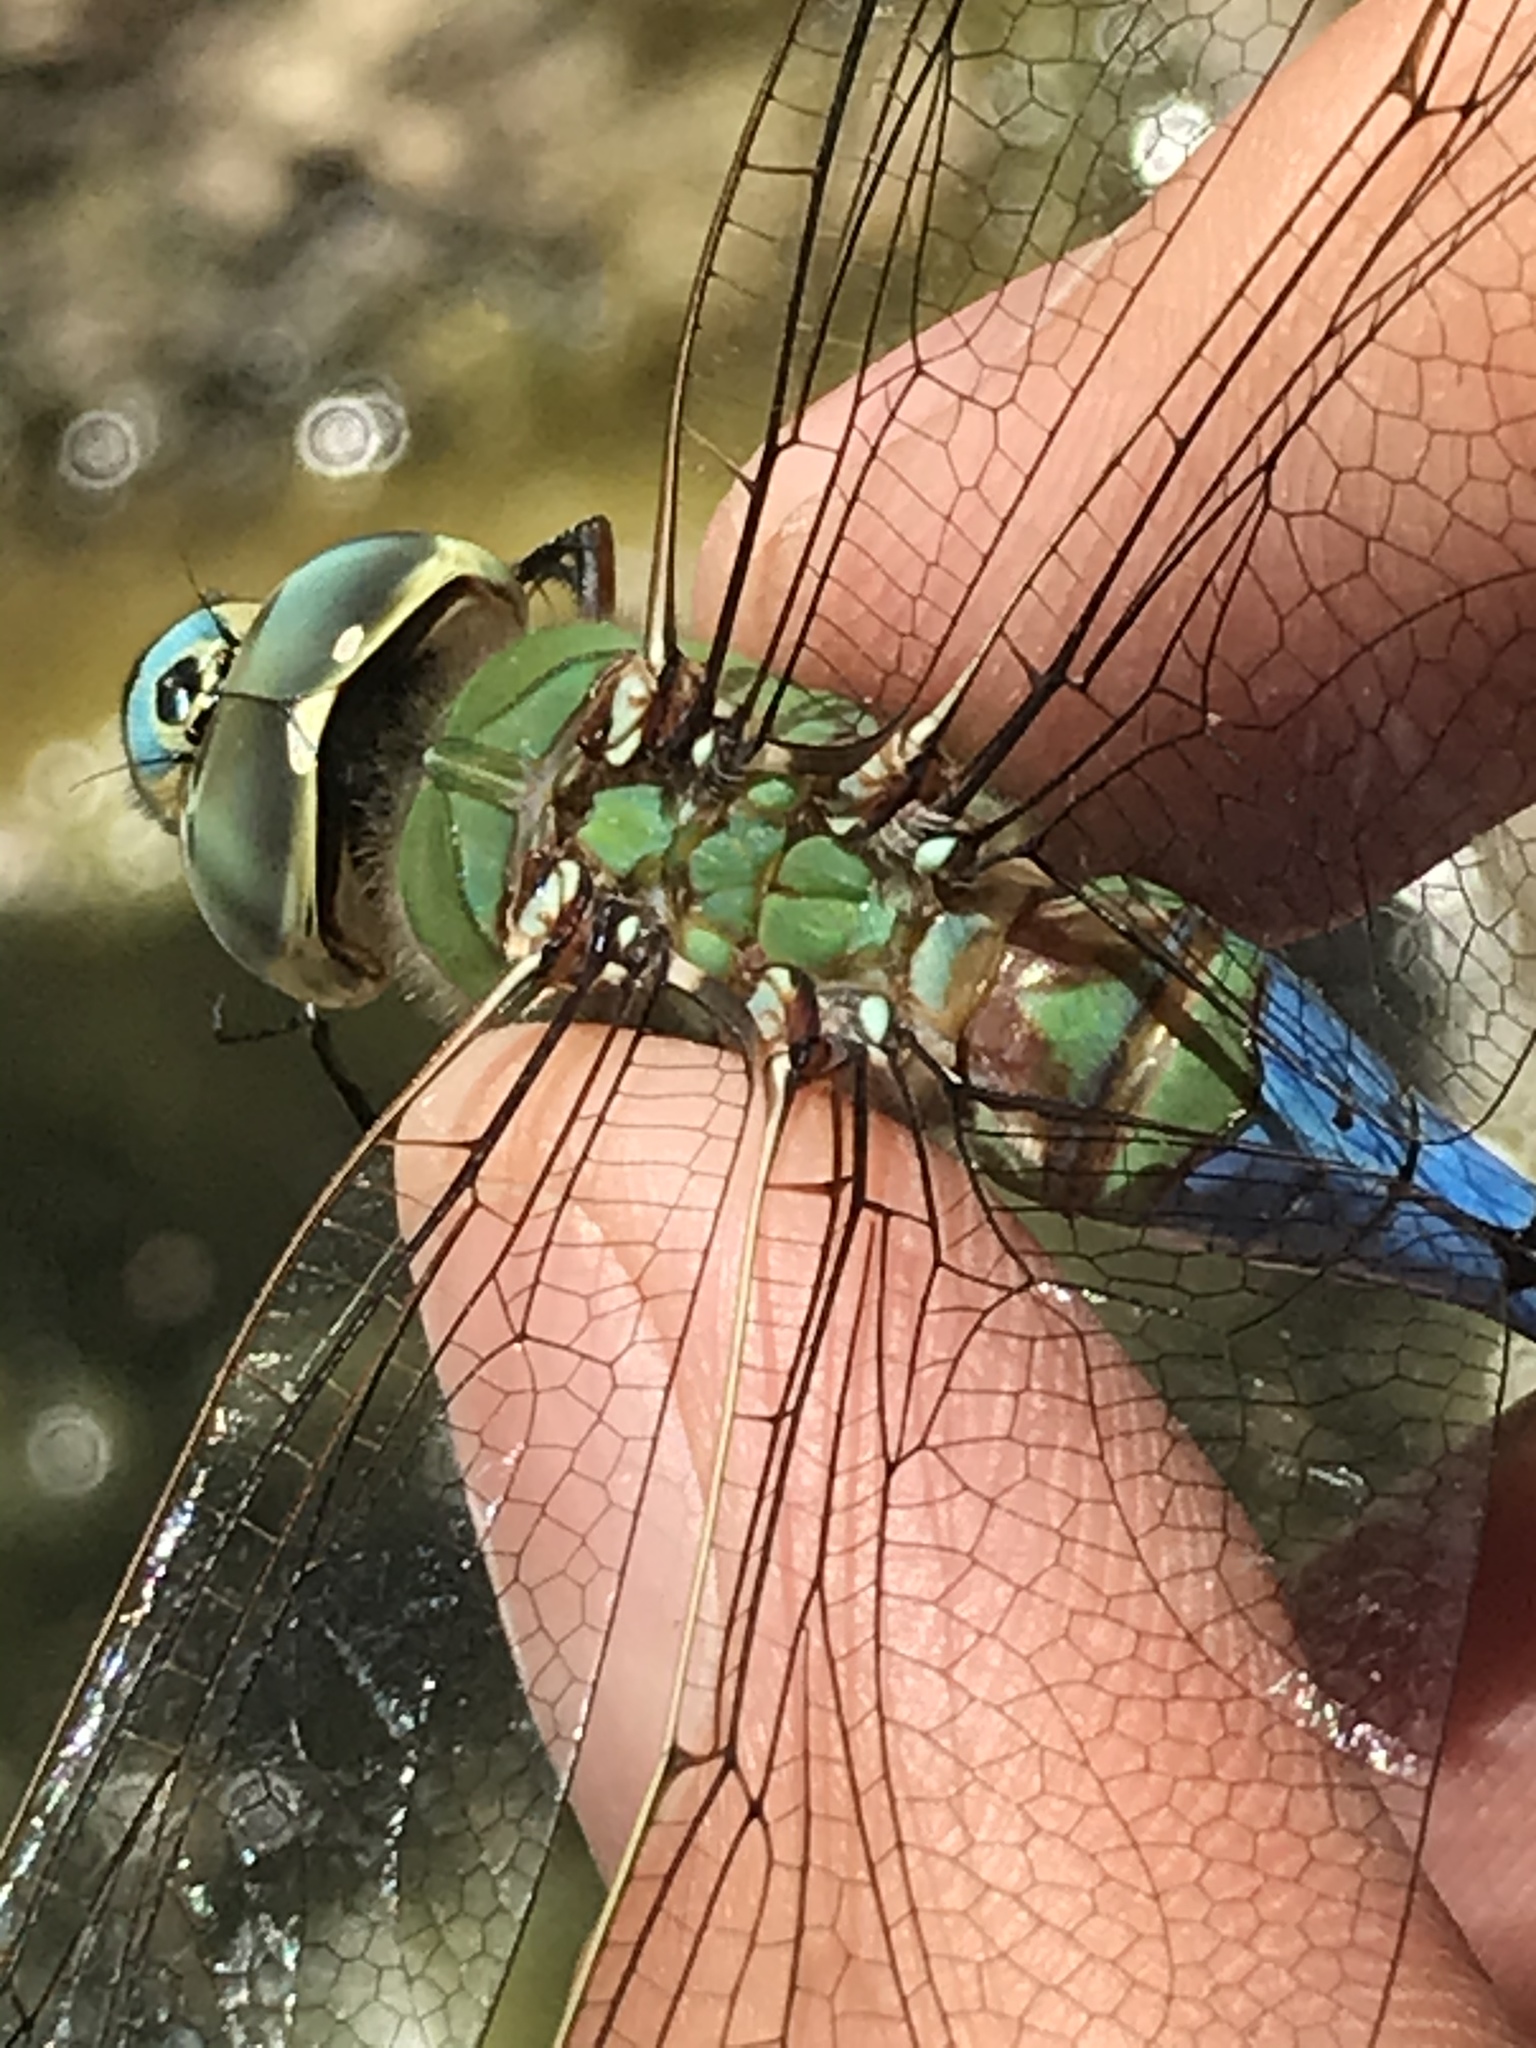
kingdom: Animalia
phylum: Arthropoda
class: Insecta
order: Odonata
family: Aeshnidae
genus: Anax
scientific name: Anax junius
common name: Common green darner
